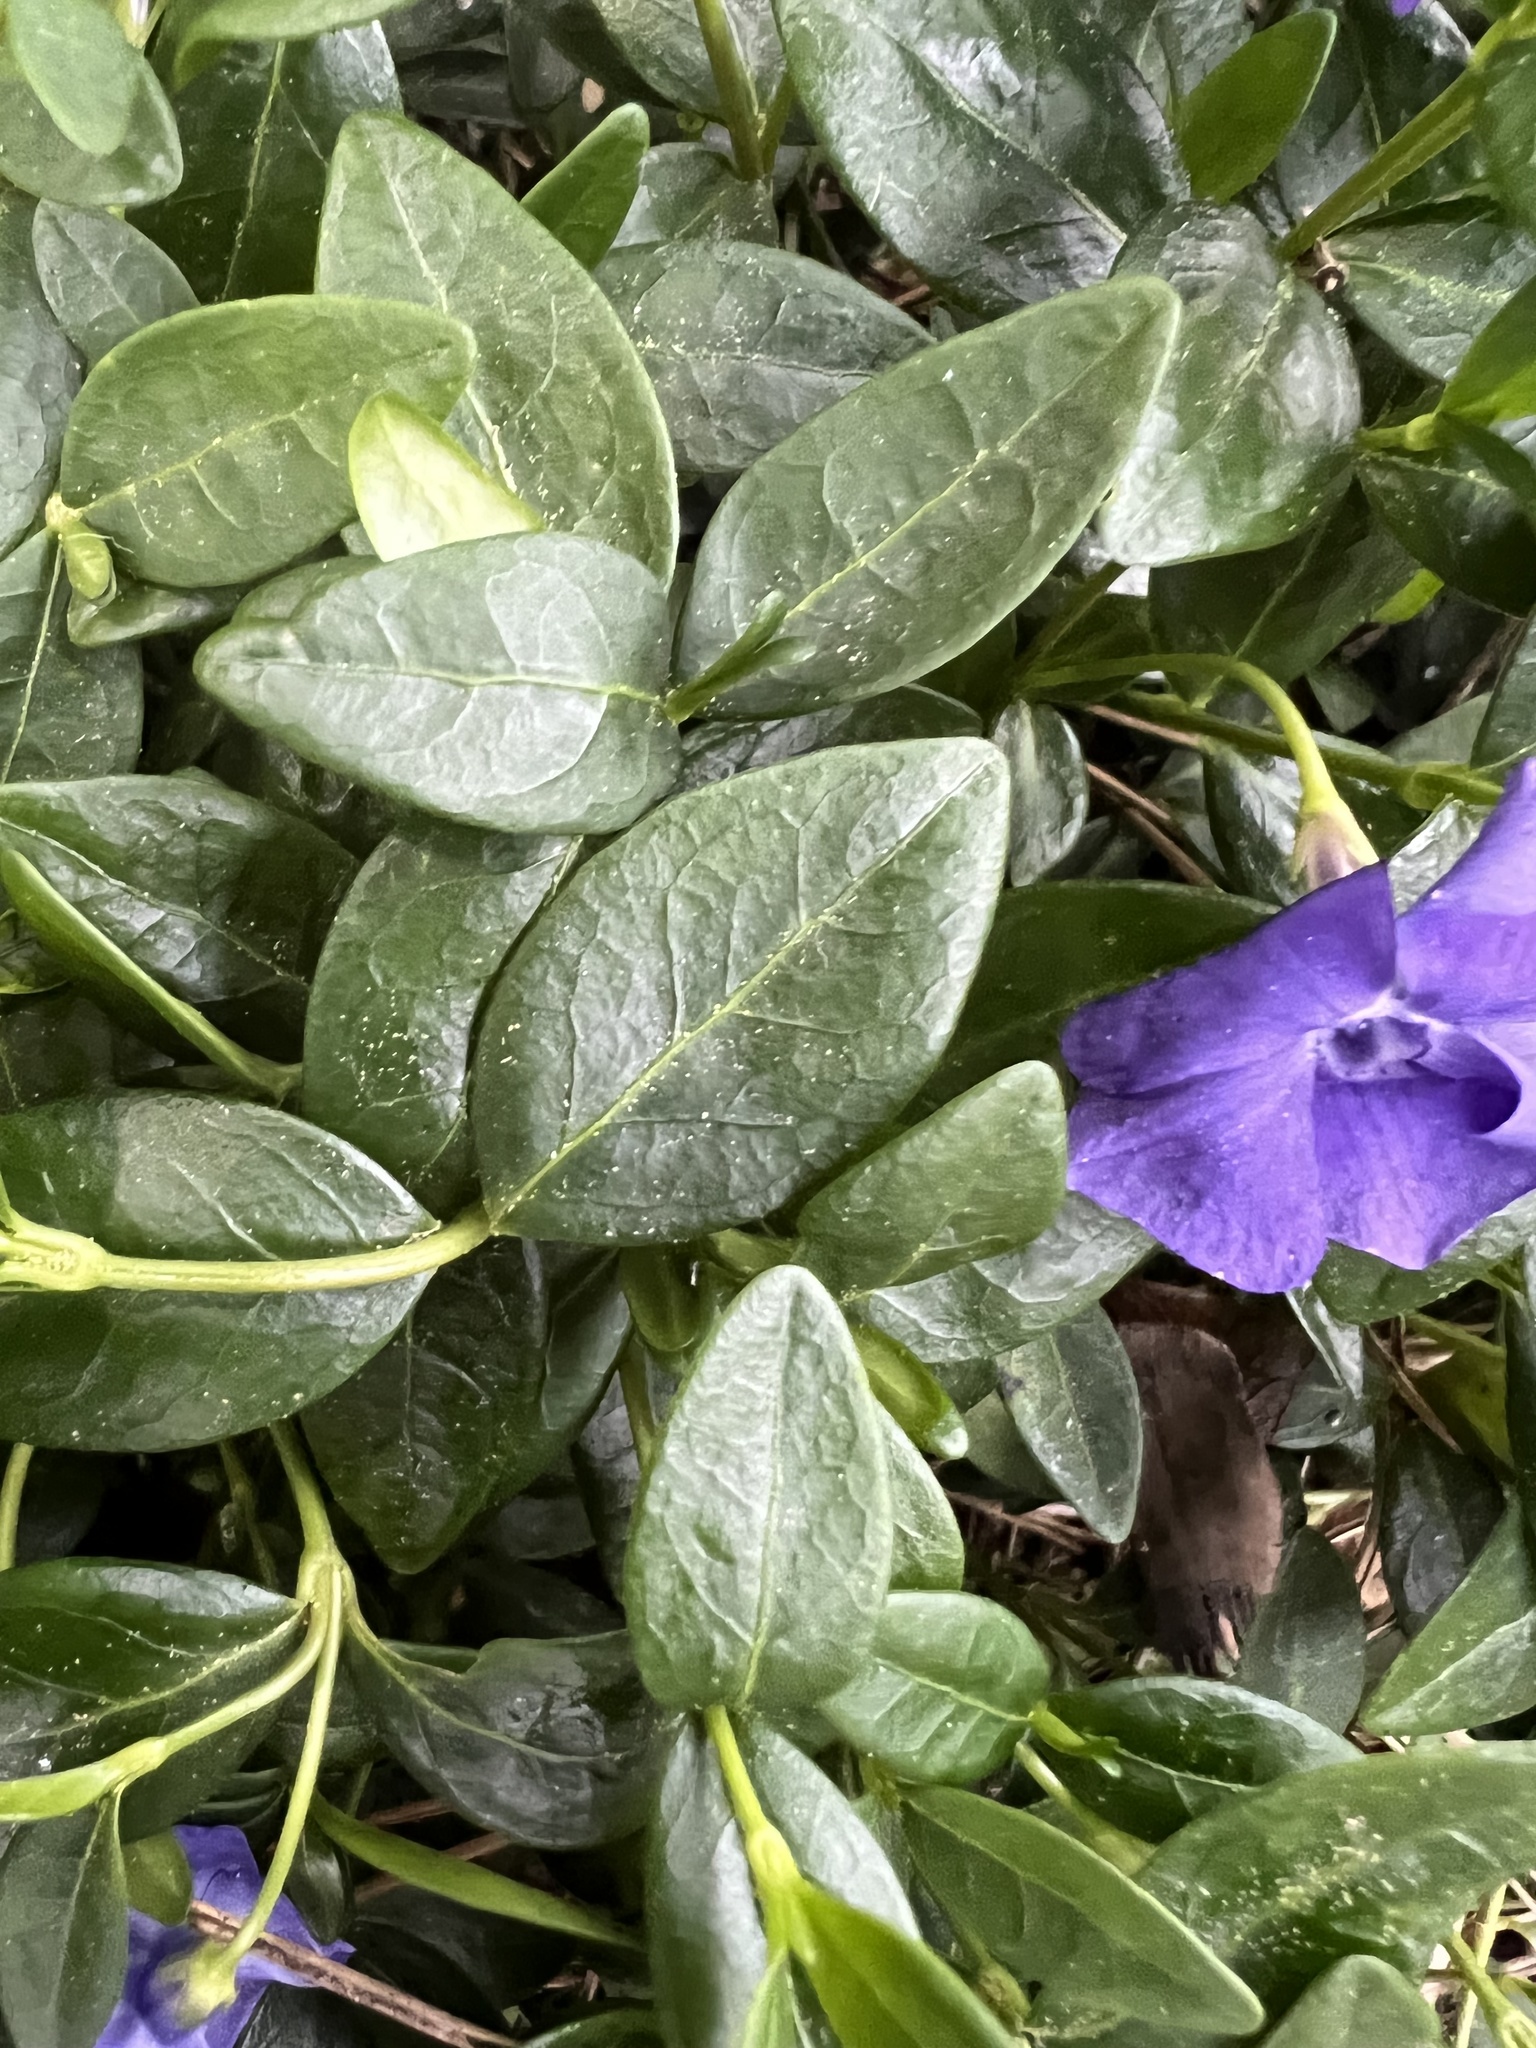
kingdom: Plantae
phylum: Tracheophyta
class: Magnoliopsida
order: Gentianales
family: Apocynaceae
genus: Vinca
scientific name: Vinca minor
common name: Lesser periwinkle
